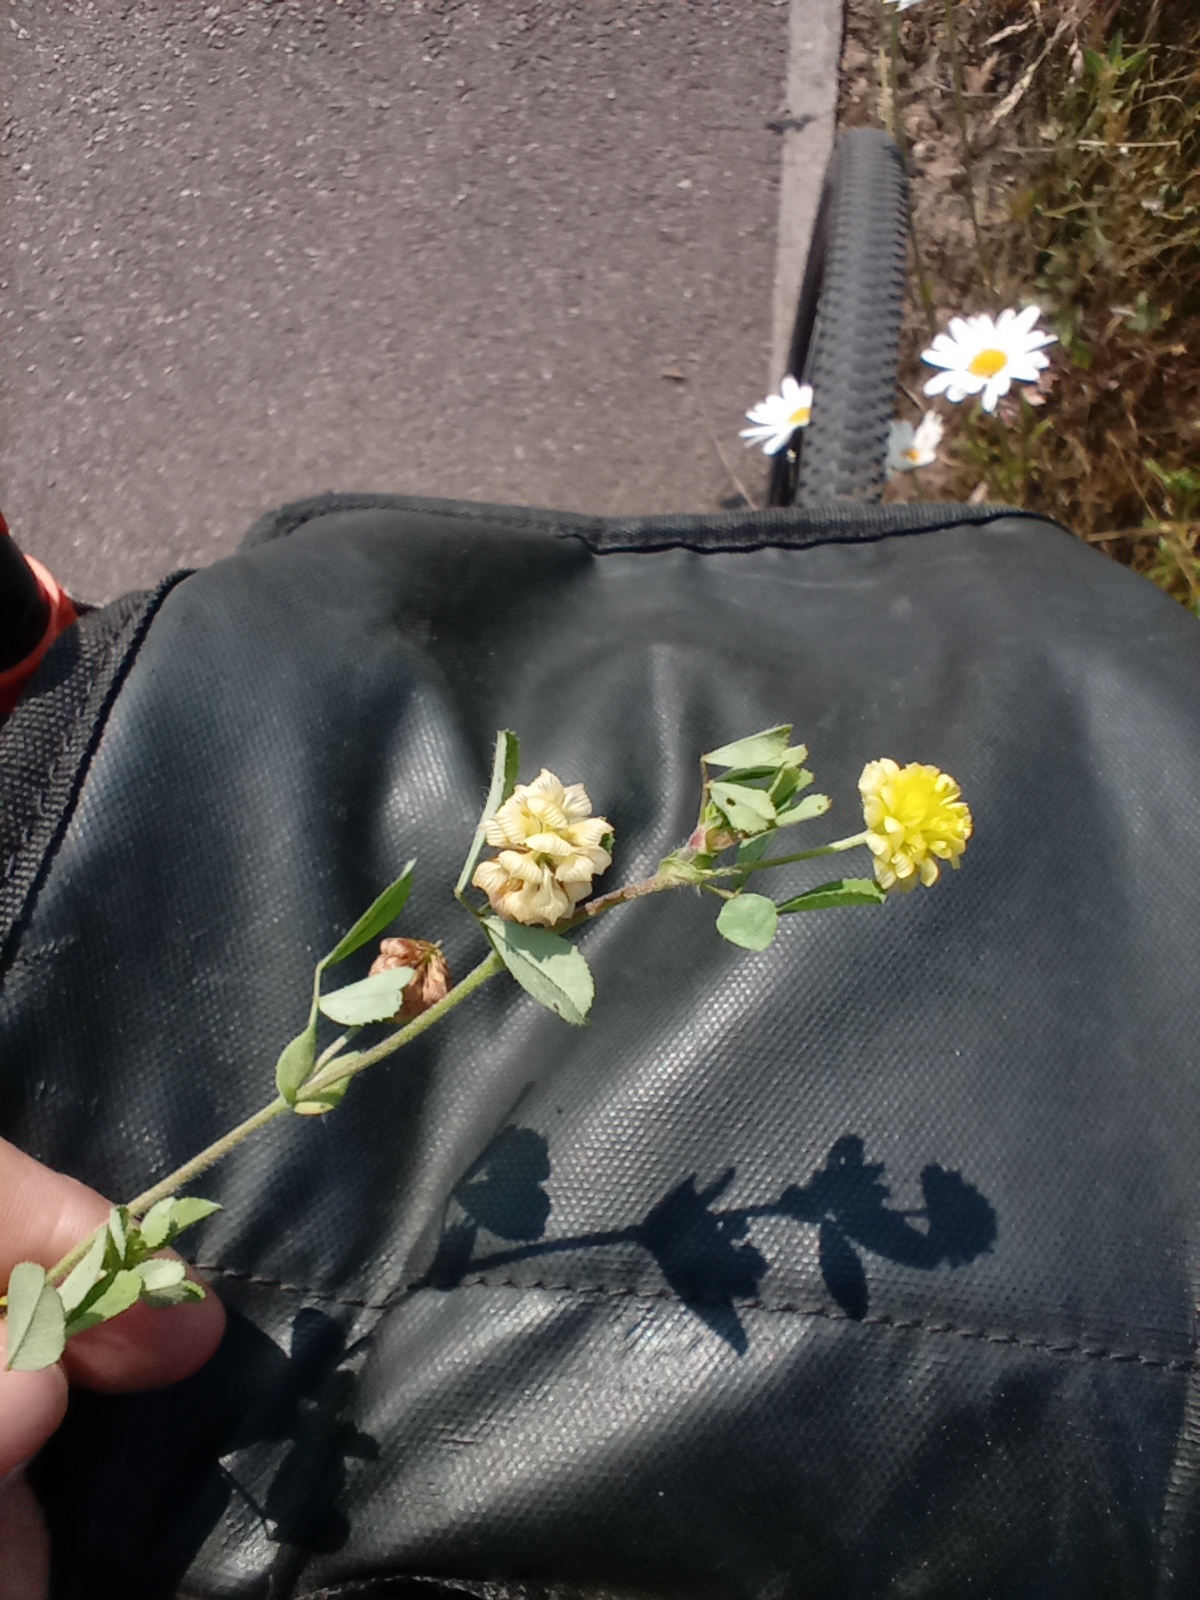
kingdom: Plantae
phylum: Tracheophyta
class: Magnoliopsida
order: Fabales
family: Fabaceae
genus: Trifolium
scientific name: Trifolium campestre
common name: Field clover
